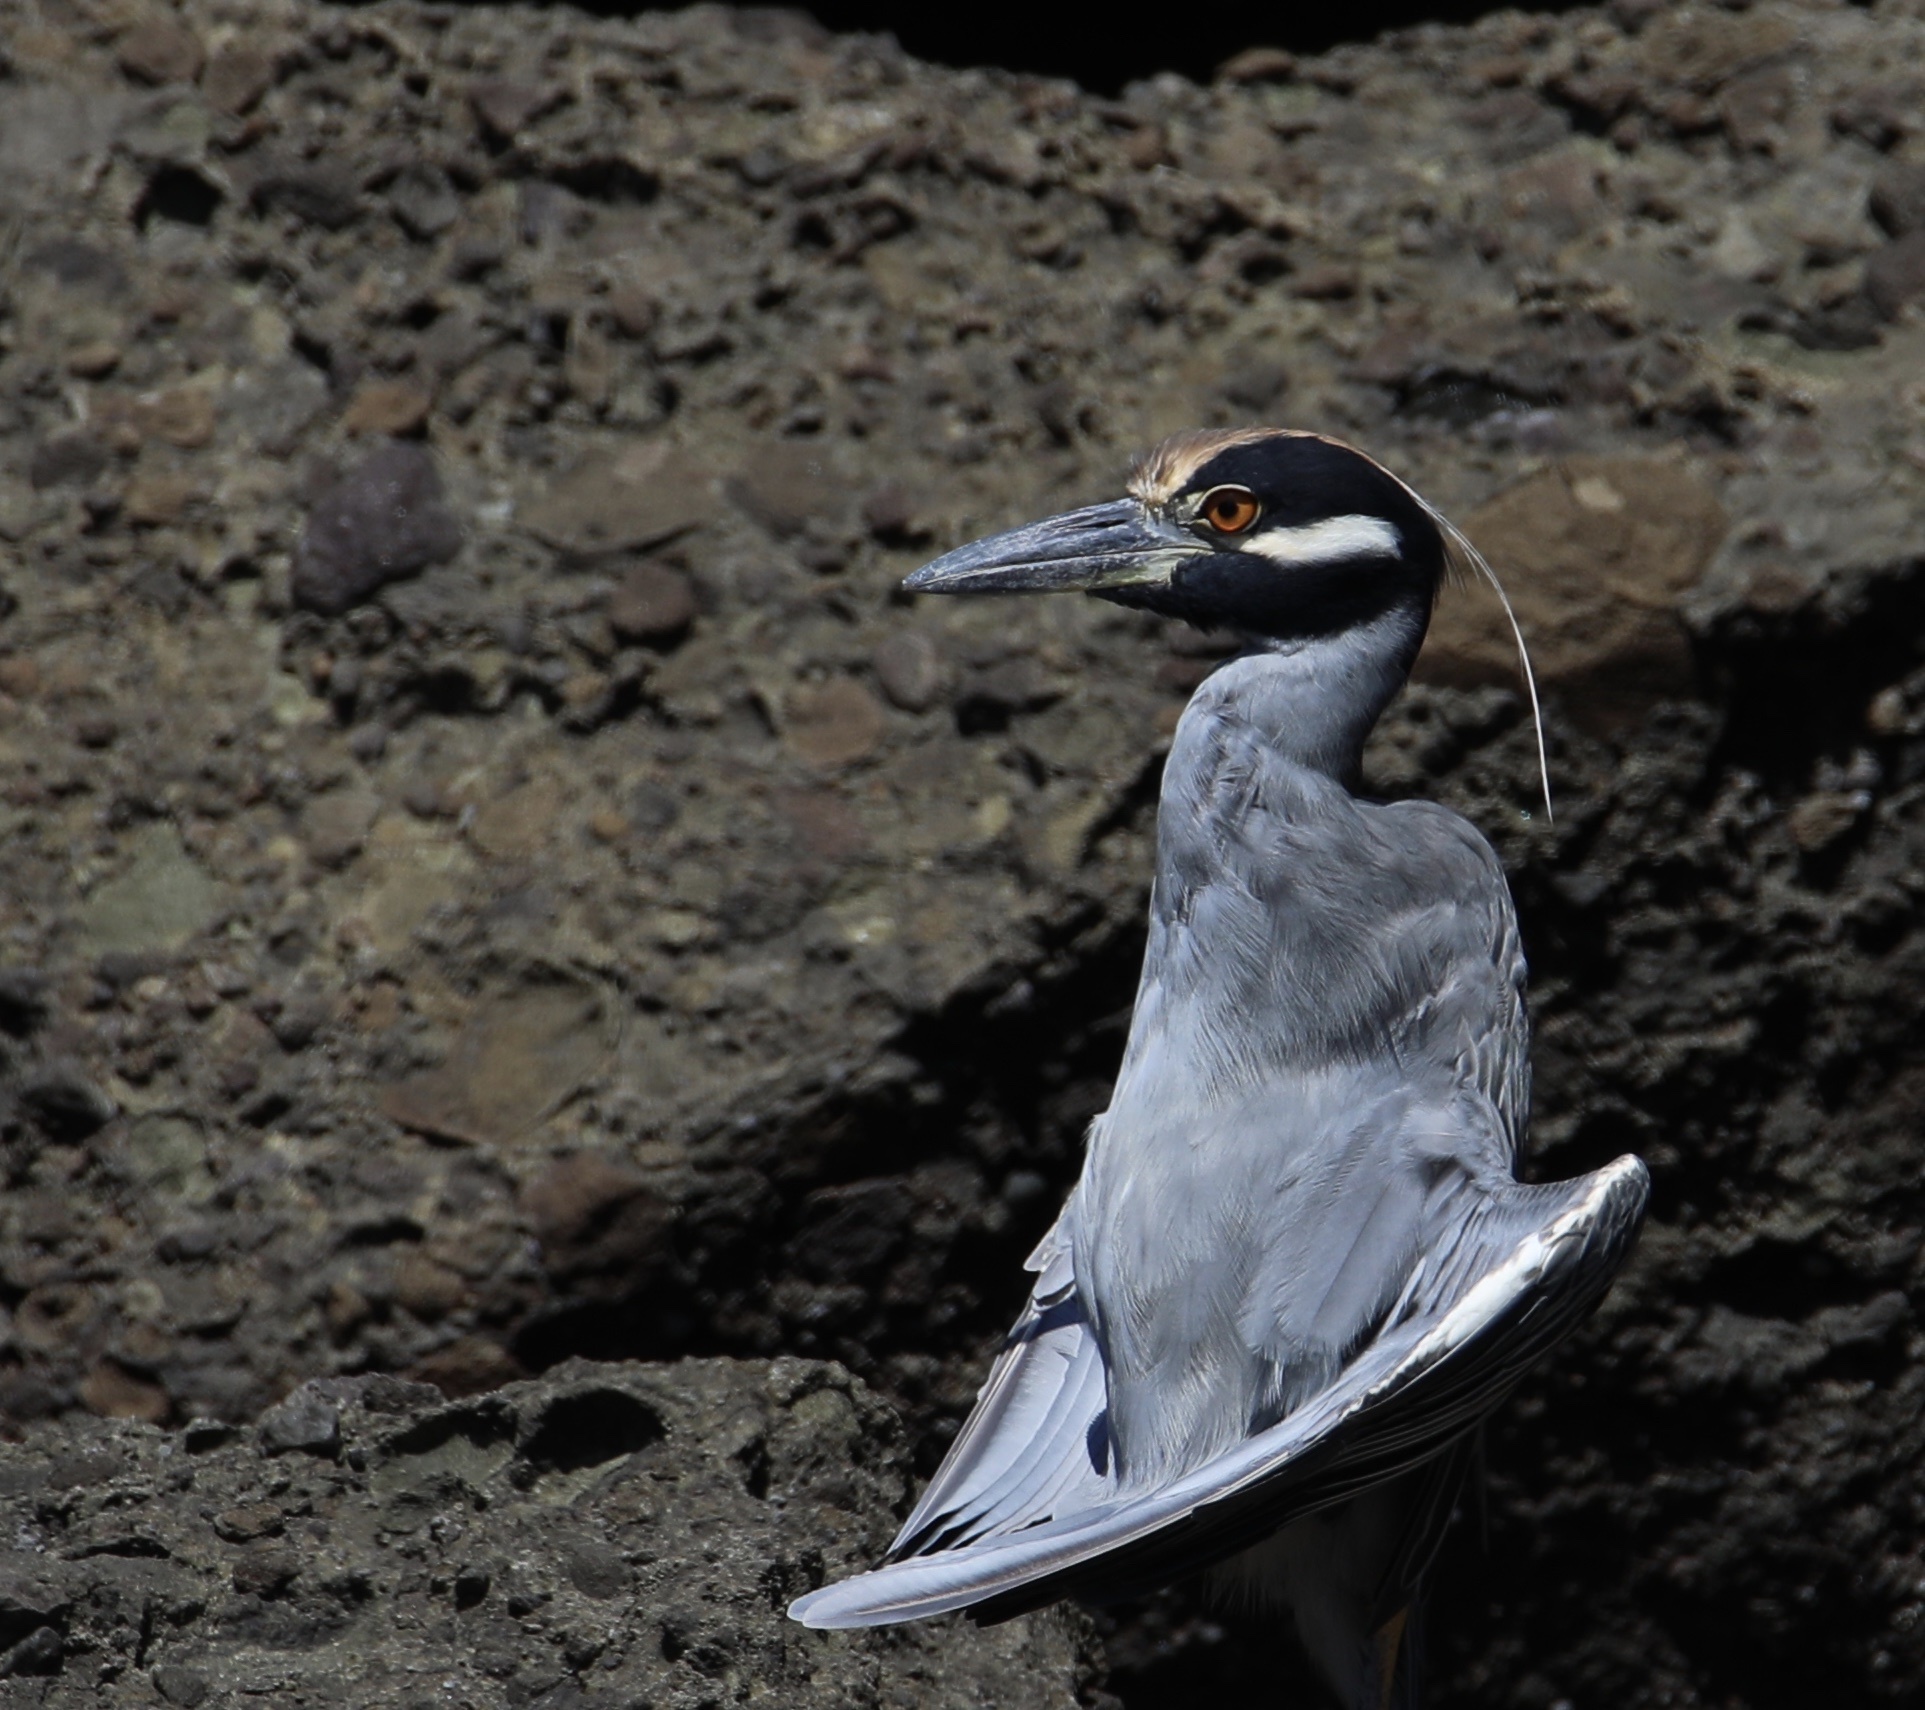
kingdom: Animalia
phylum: Chordata
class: Aves
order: Pelecaniformes
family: Ardeidae
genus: Nyctanassa
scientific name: Nyctanassa violacea
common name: Yellow-crowned night heron
